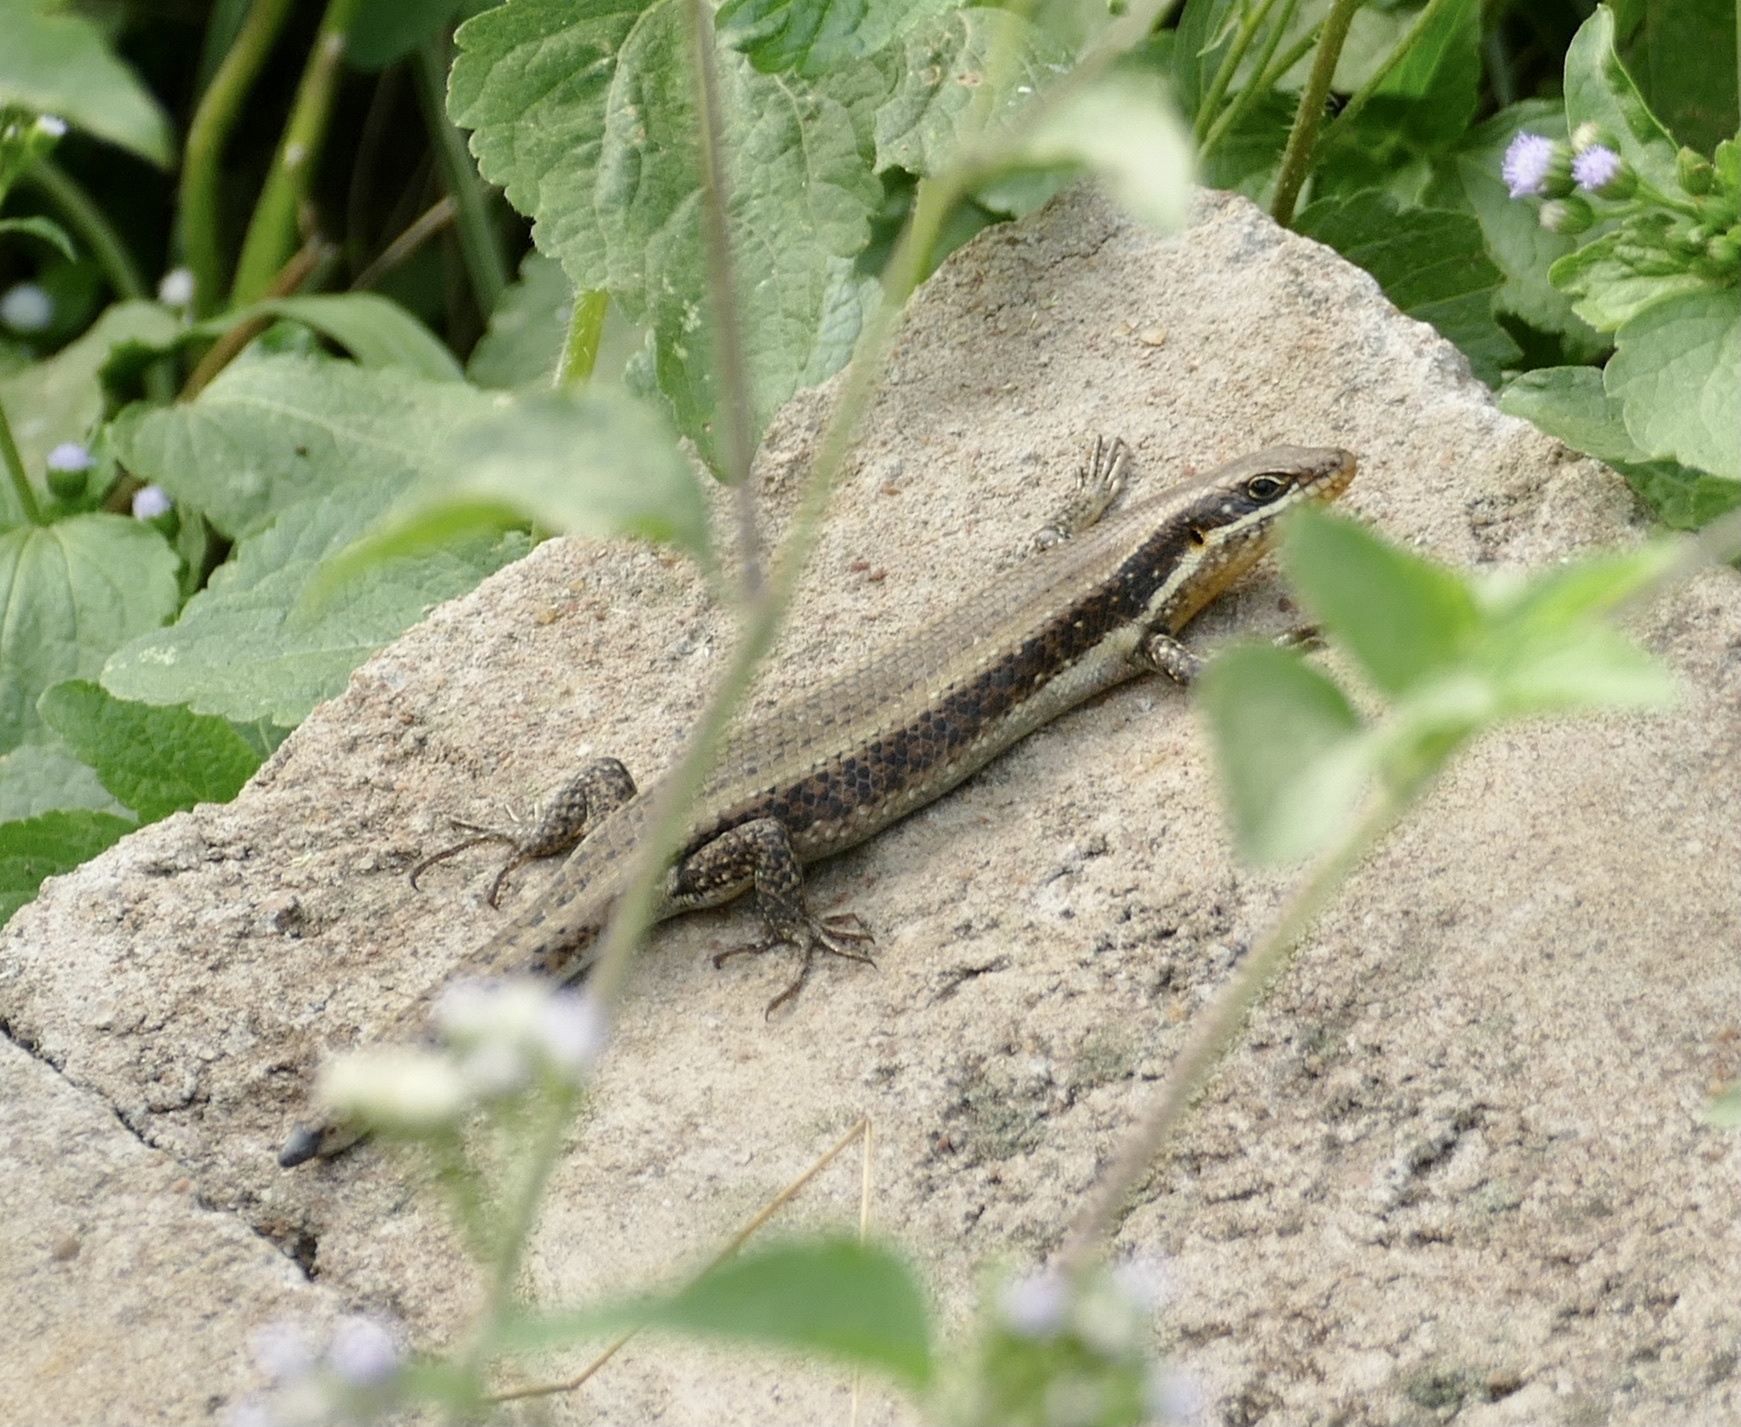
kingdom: Animalia
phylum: Chordata
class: Squamata
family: Scincidae
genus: Trachylepis
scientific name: Trachylepis maculilabris
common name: Speckle-lipped mabuya
